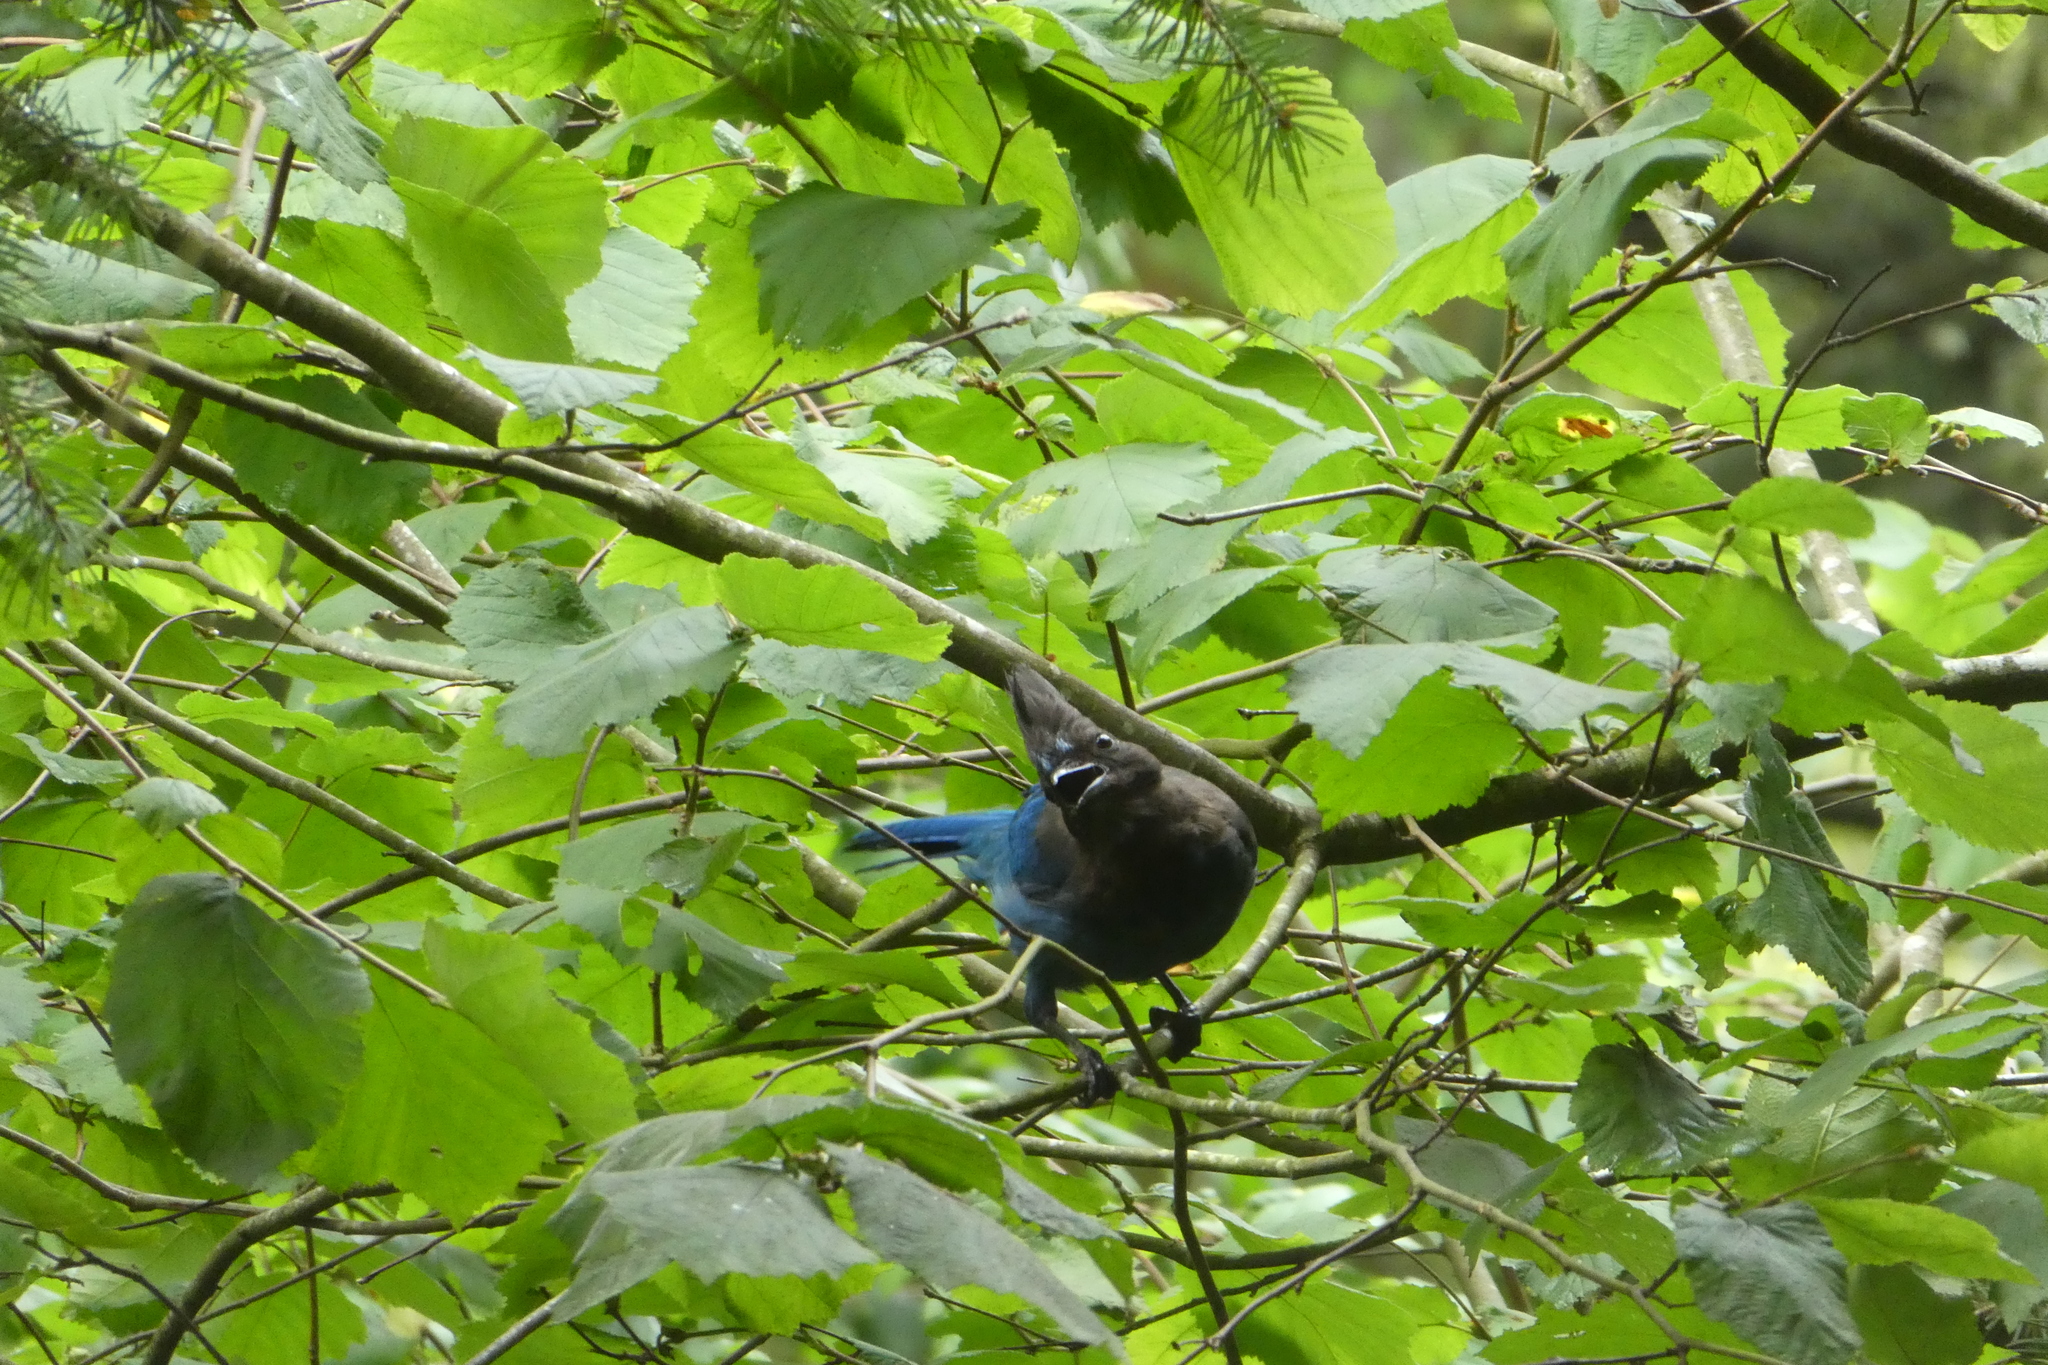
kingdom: Animalia
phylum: Chordata
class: Aves
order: Passeriformes
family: Corvidae
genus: Cyanocitta
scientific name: Cyanocitta stelleri
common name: Steller's jay
